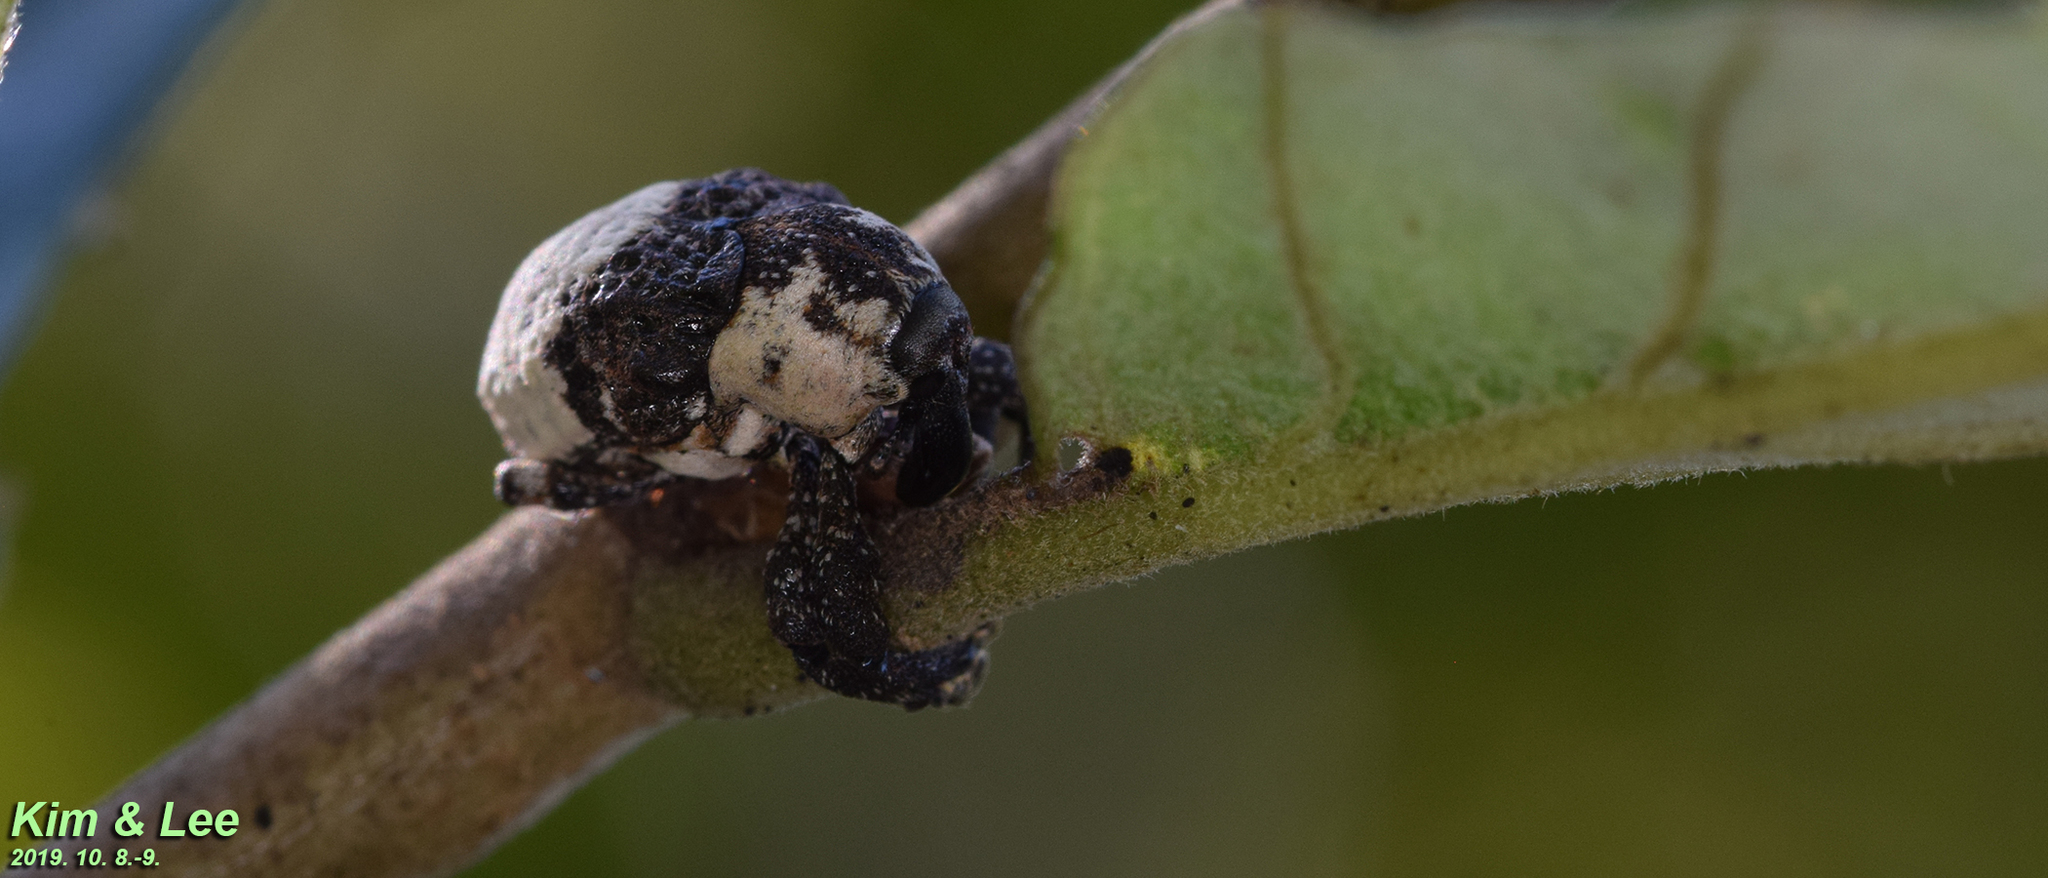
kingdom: Animalia
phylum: Arthropoda
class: Insecta
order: Coleoptera
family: Curculionidae
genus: Alcides
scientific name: Alcides trifidus
